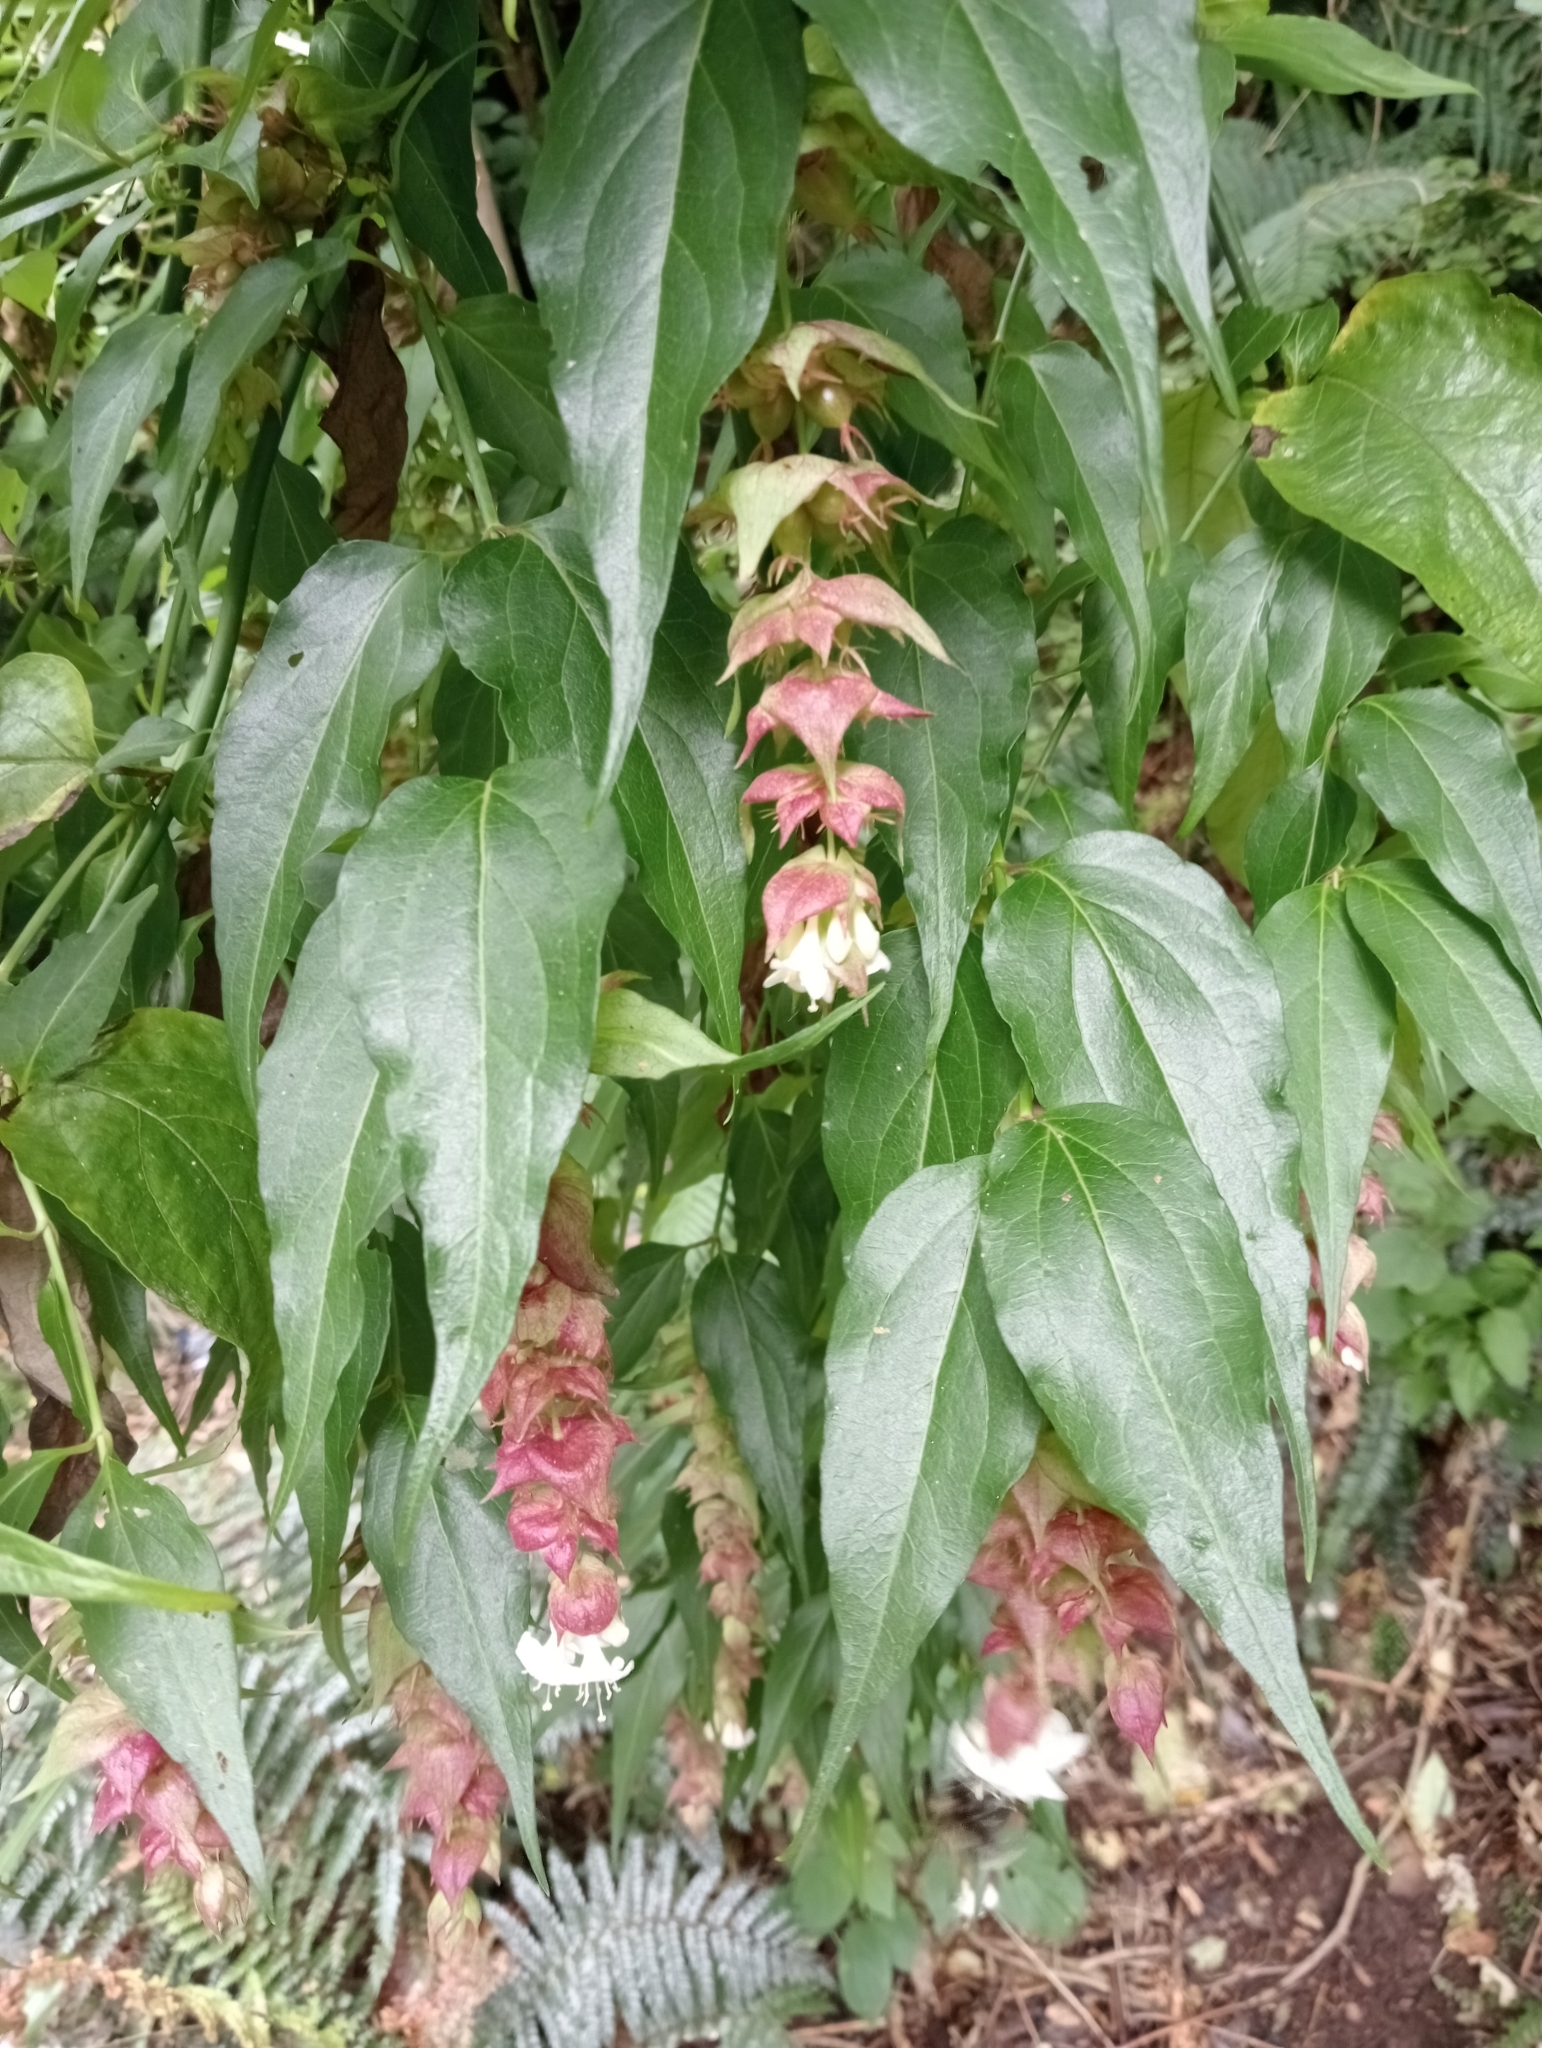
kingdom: Plantae
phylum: Tracheophyta
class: Magnoliopsida
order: Dipsacales
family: Caprifoliaceae
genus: Leycesteria
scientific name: Leycesteria formosa
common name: Himalayan honeysuckle
